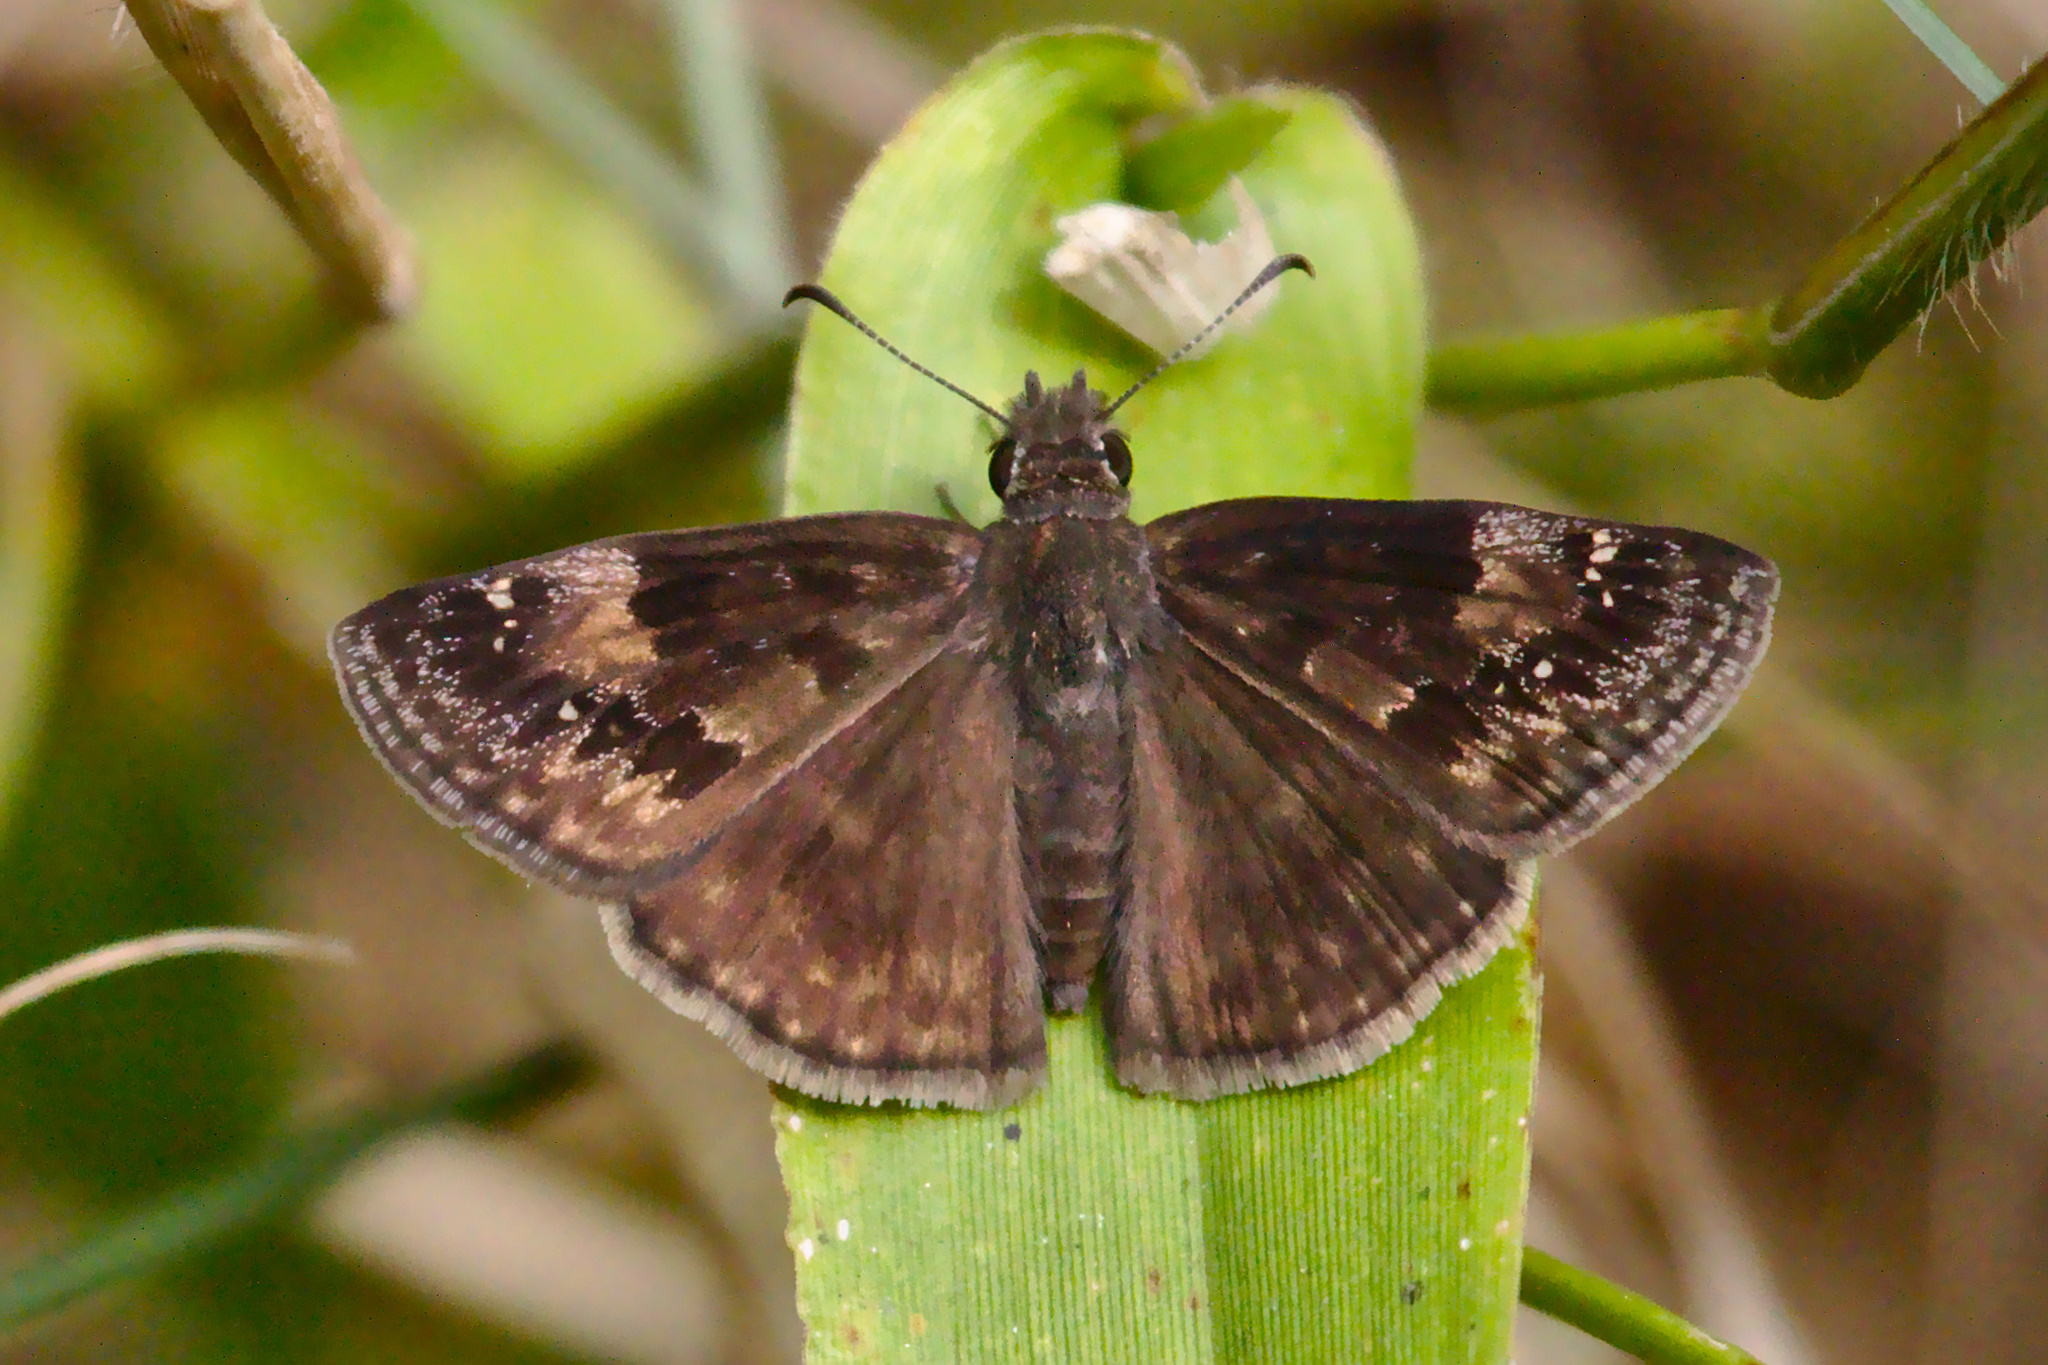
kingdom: Animalia
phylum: Arthropoda
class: Insecta
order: Lepidoptera
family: Hesperiidae
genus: Erynnis
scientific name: Erynnis baptisiae
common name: Wild indigo duskywing
